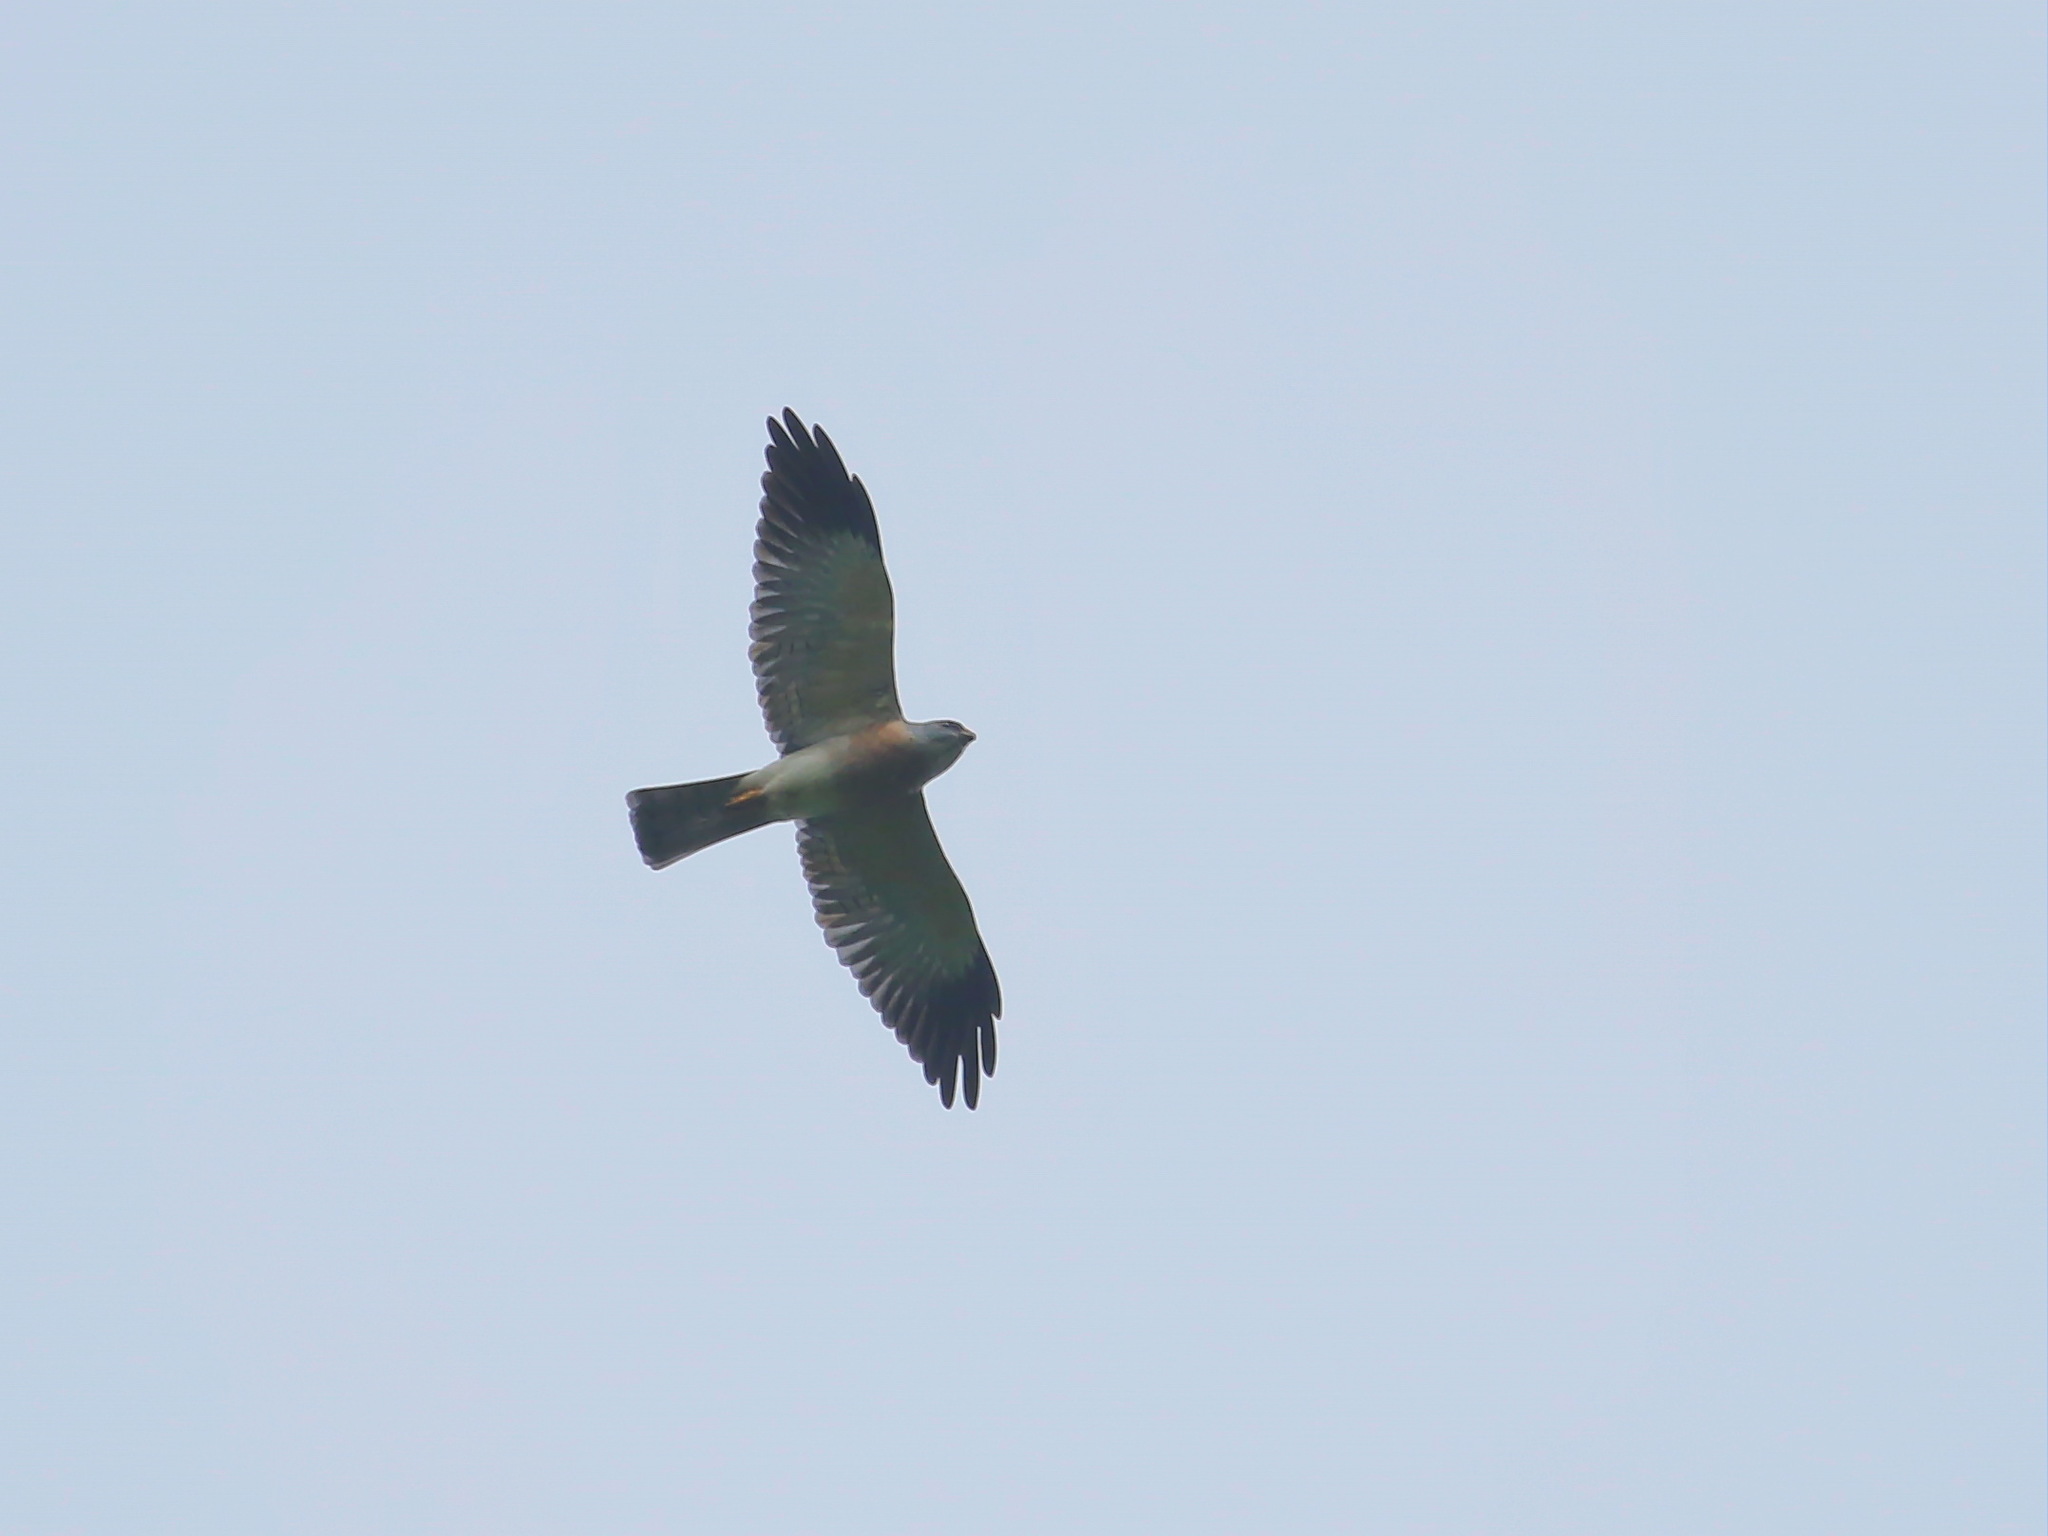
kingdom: Animalia
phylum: Chordata
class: Aves
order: Accipitriformes
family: Accipitridae
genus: Accipiter
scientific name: Accipiter soloensis
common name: Chinese sparrowhawk
